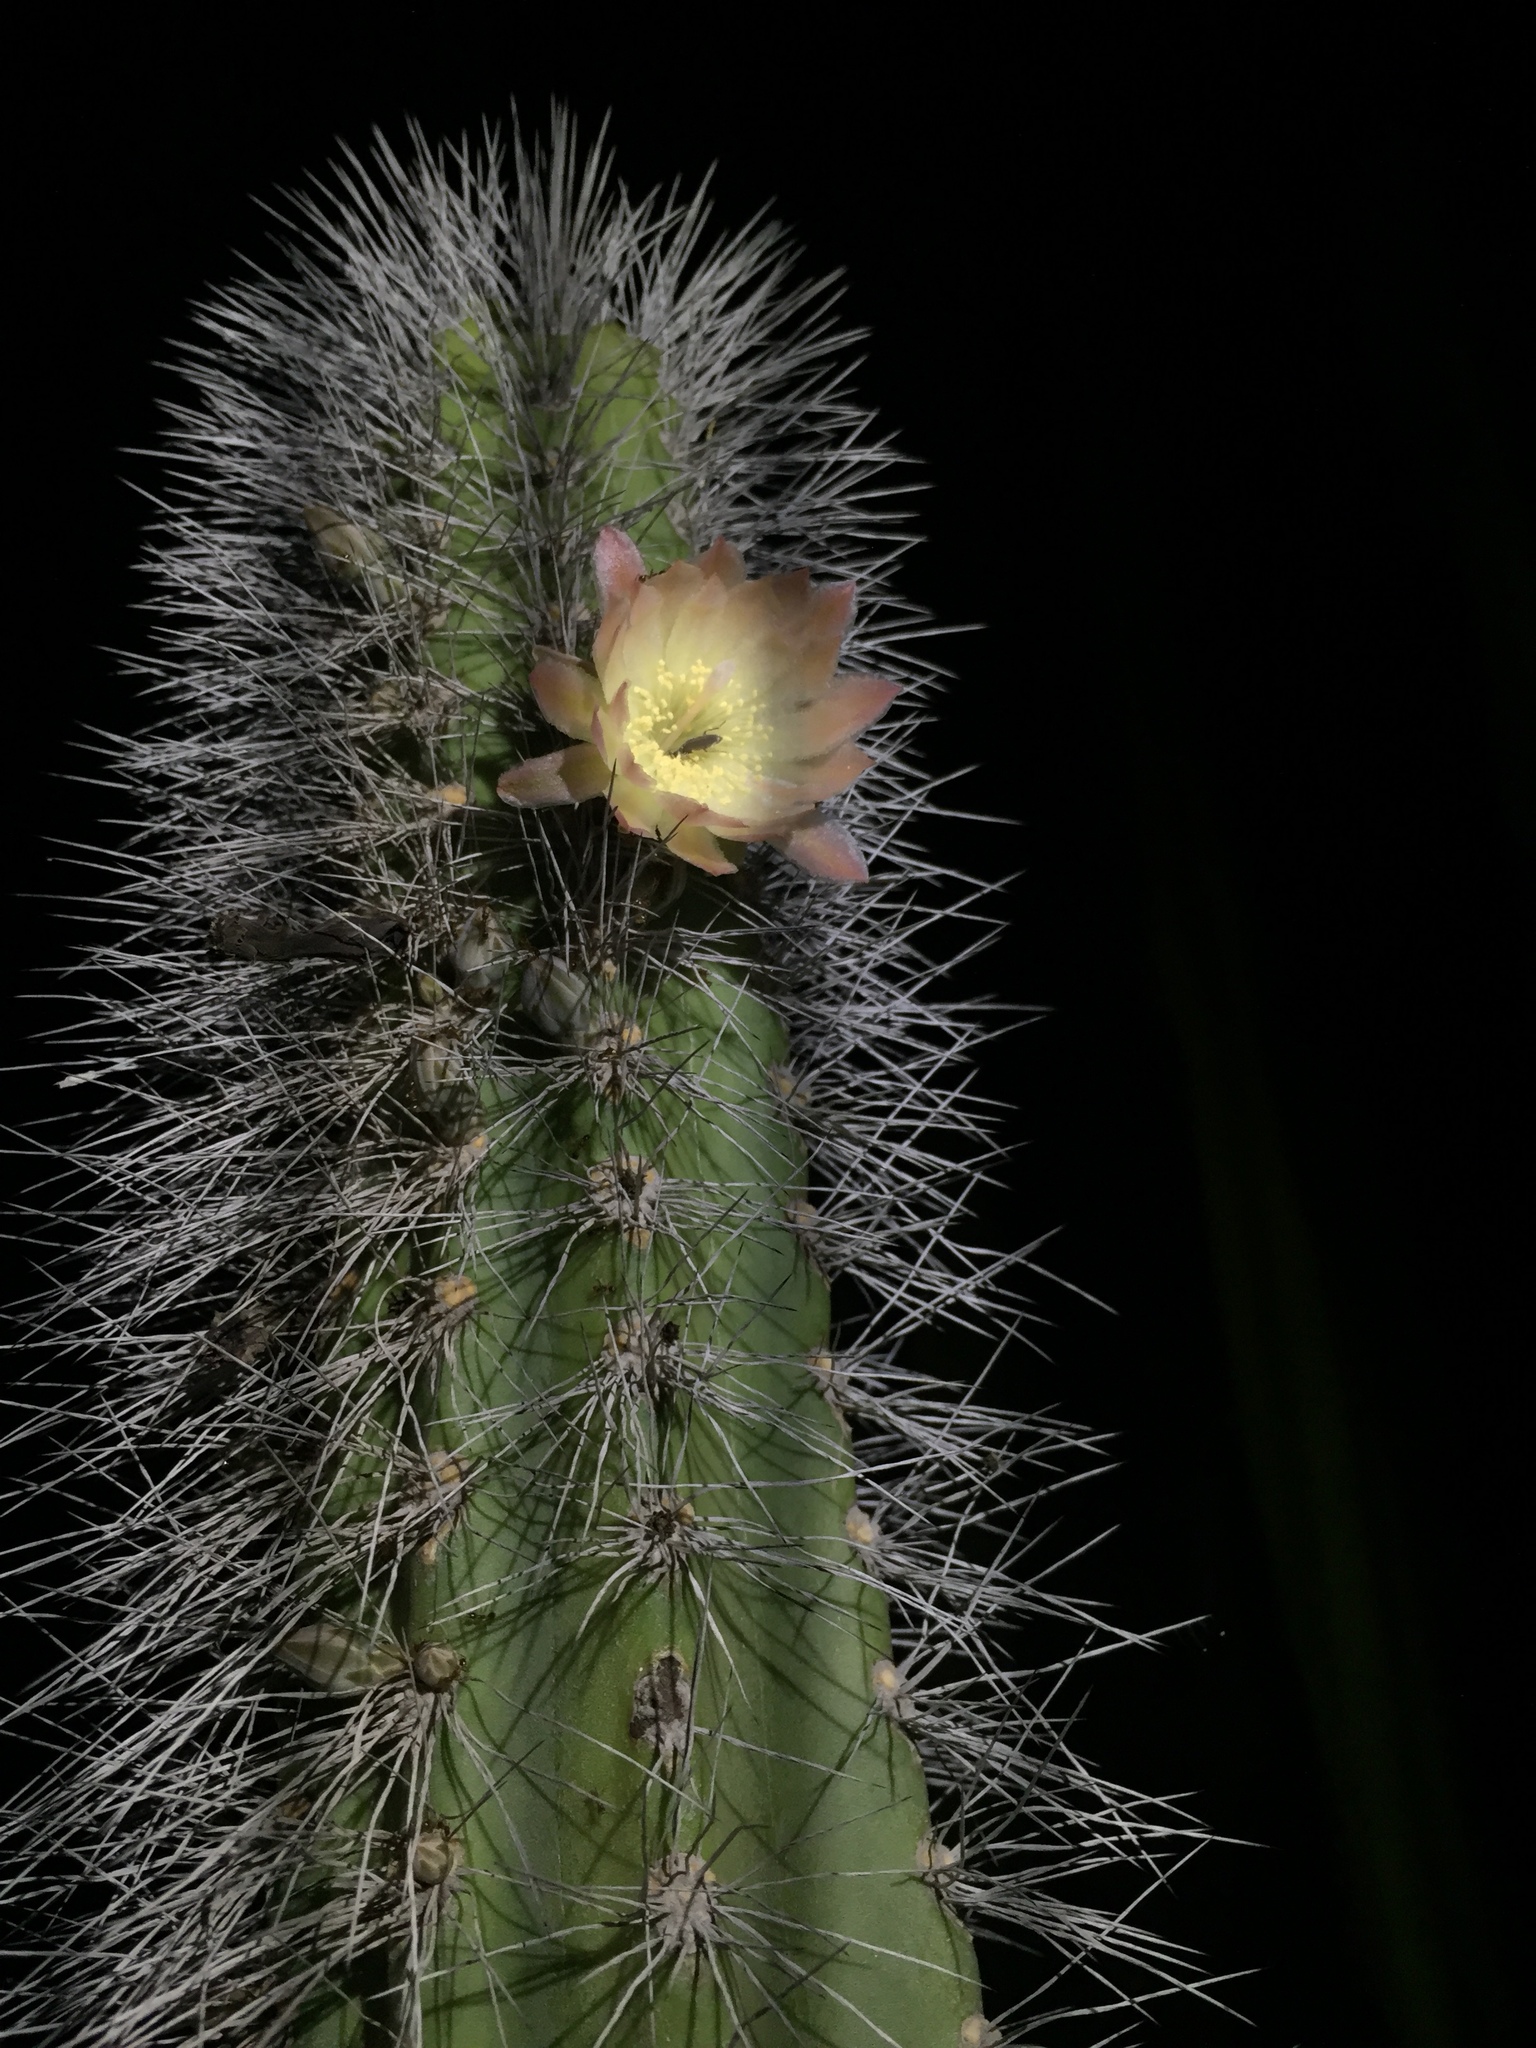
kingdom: Plantae
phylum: Tracheophyta
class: Magnoliopsida
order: Caryophyllales
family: Cactaceae
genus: Pachycereus
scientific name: Pachycereus schottii
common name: Senita cactus
